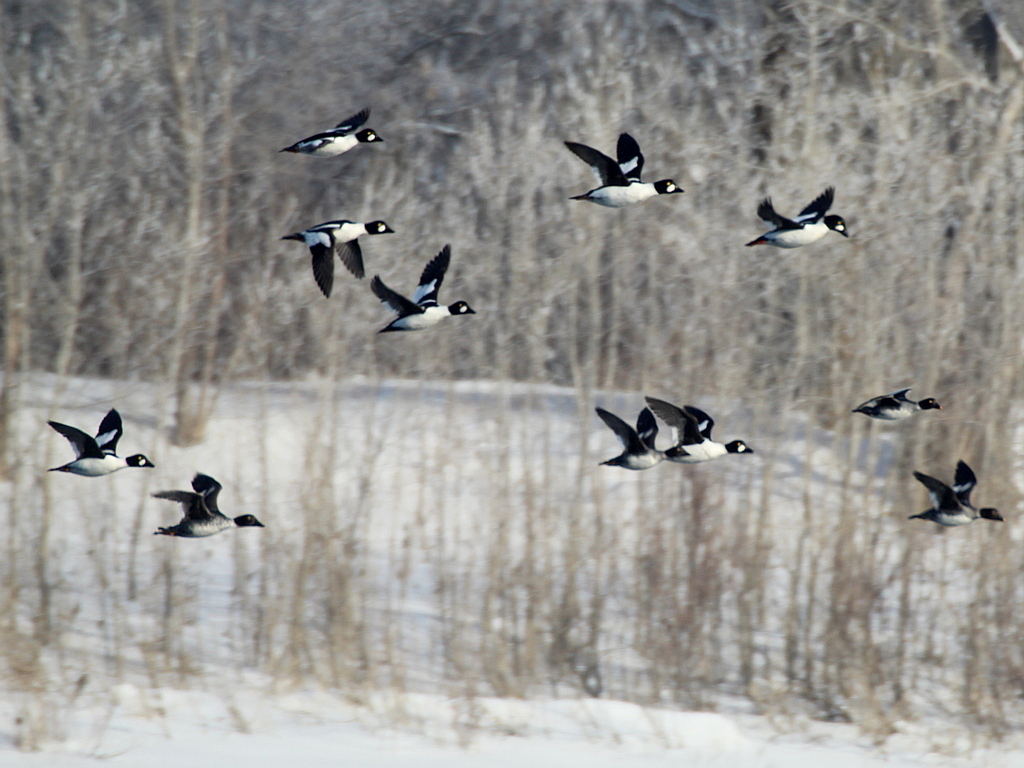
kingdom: Animalia
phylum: Chordata
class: Aves
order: Anseriformes
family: Anatidae
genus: Bucephala
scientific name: Bucephala clangula
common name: Common goldeneye
